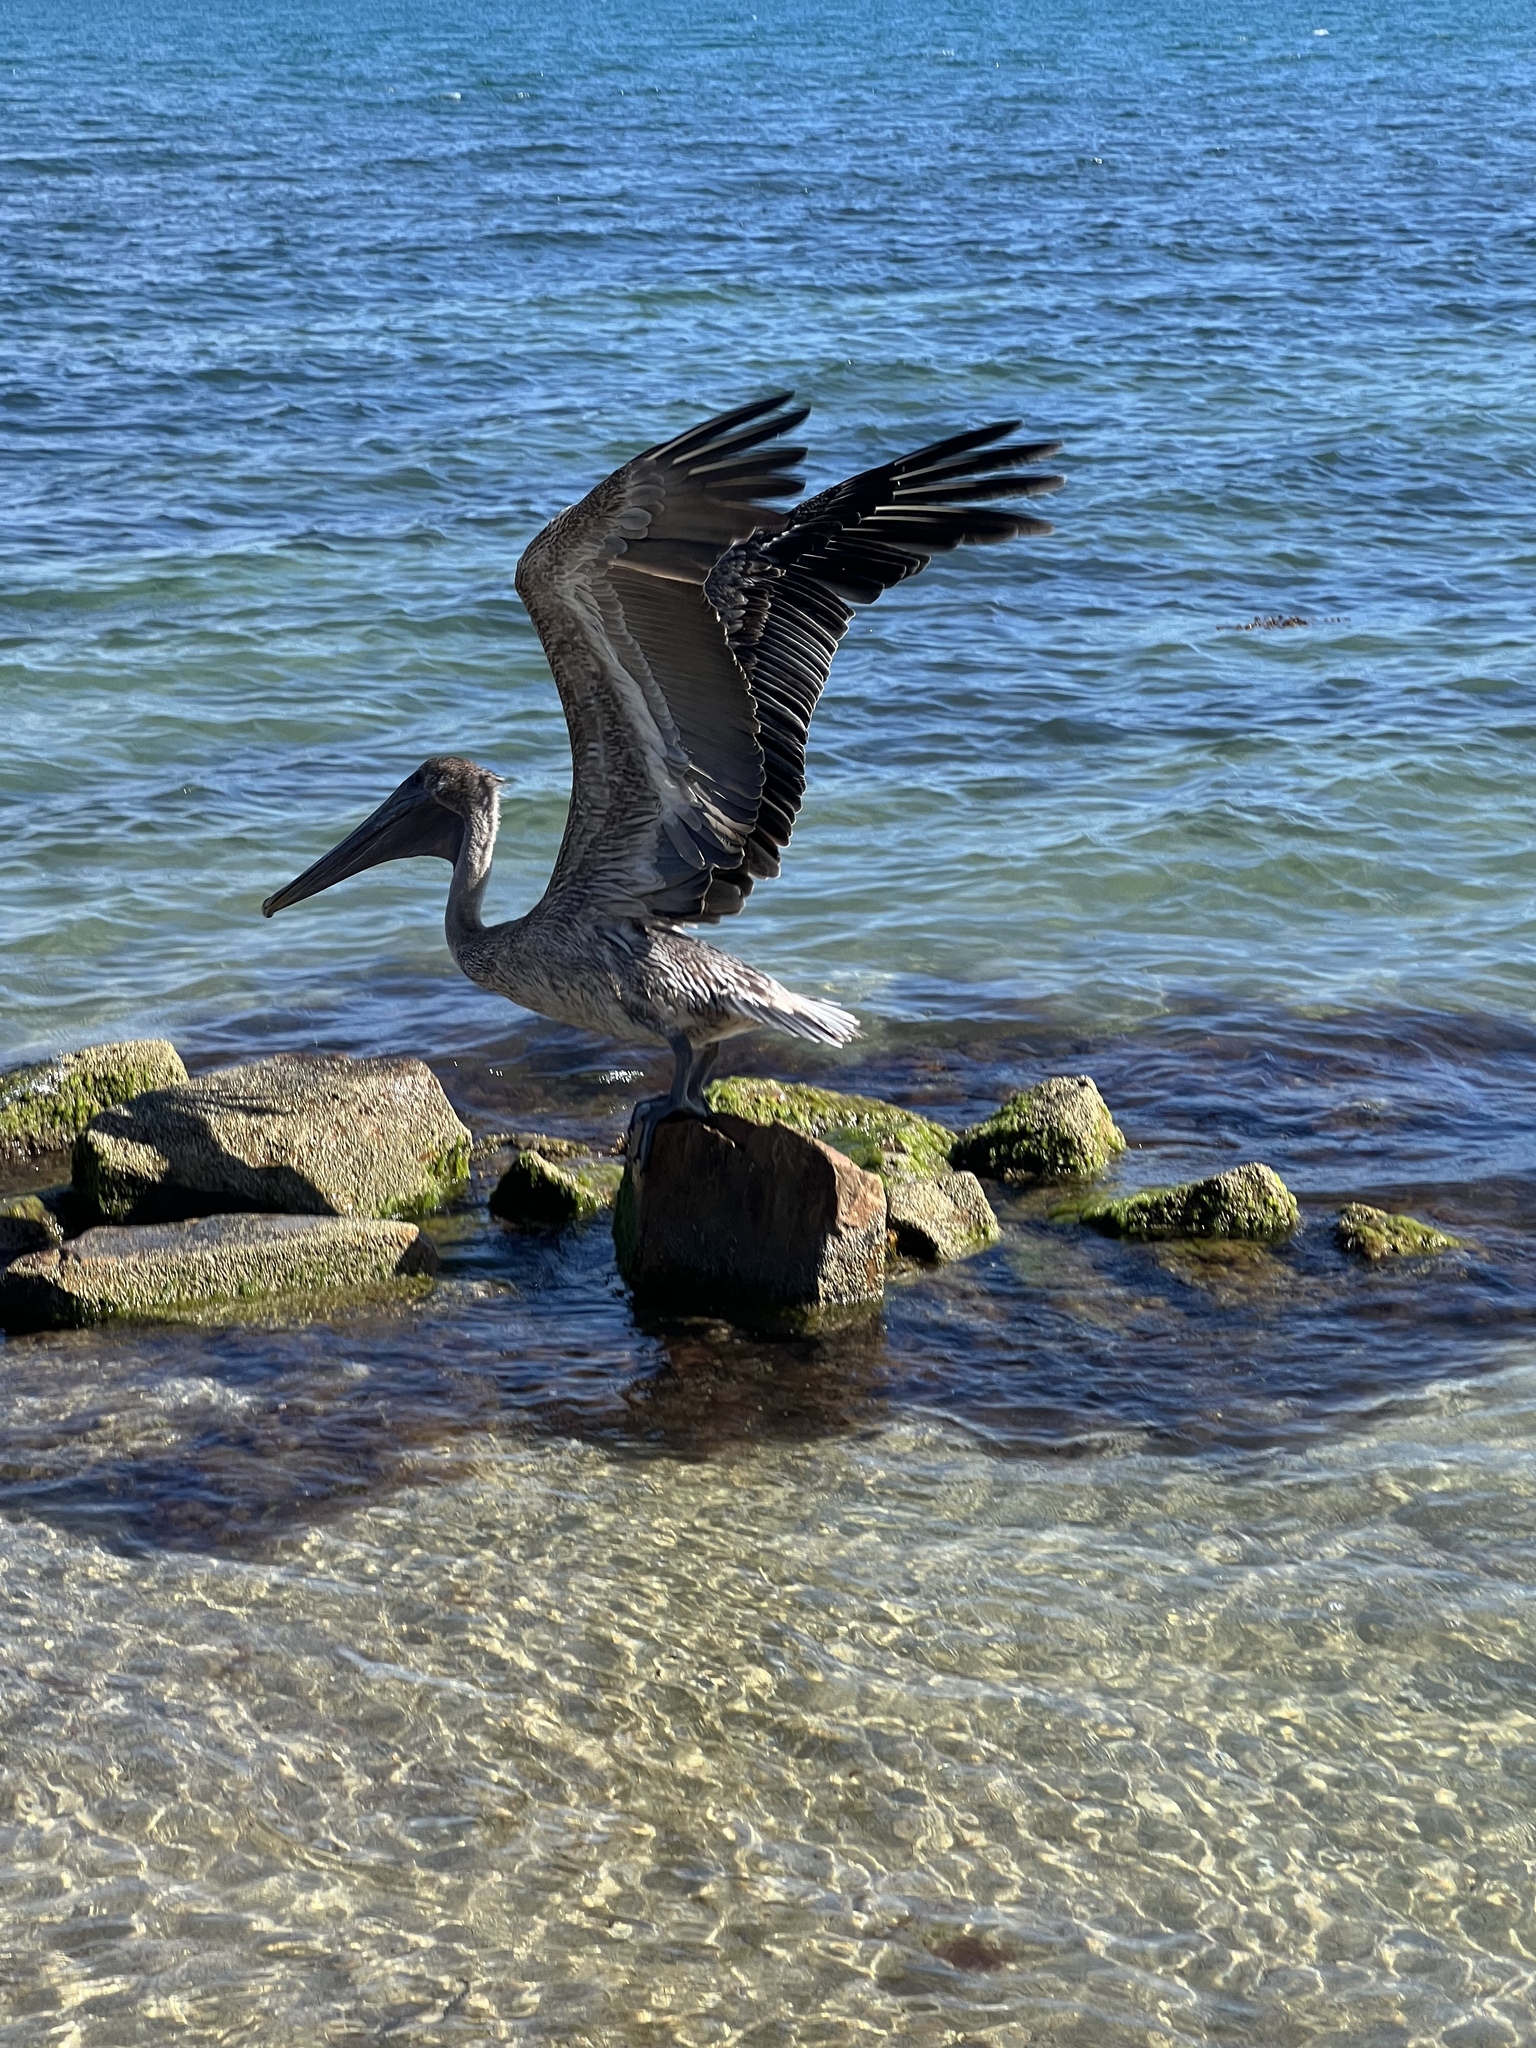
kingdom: Animalia
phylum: Chordata
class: Aves
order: Pelecaniformes
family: Pelecanidae
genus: Pelecanus
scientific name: Pelecanus occidentalis
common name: Brown pelican
